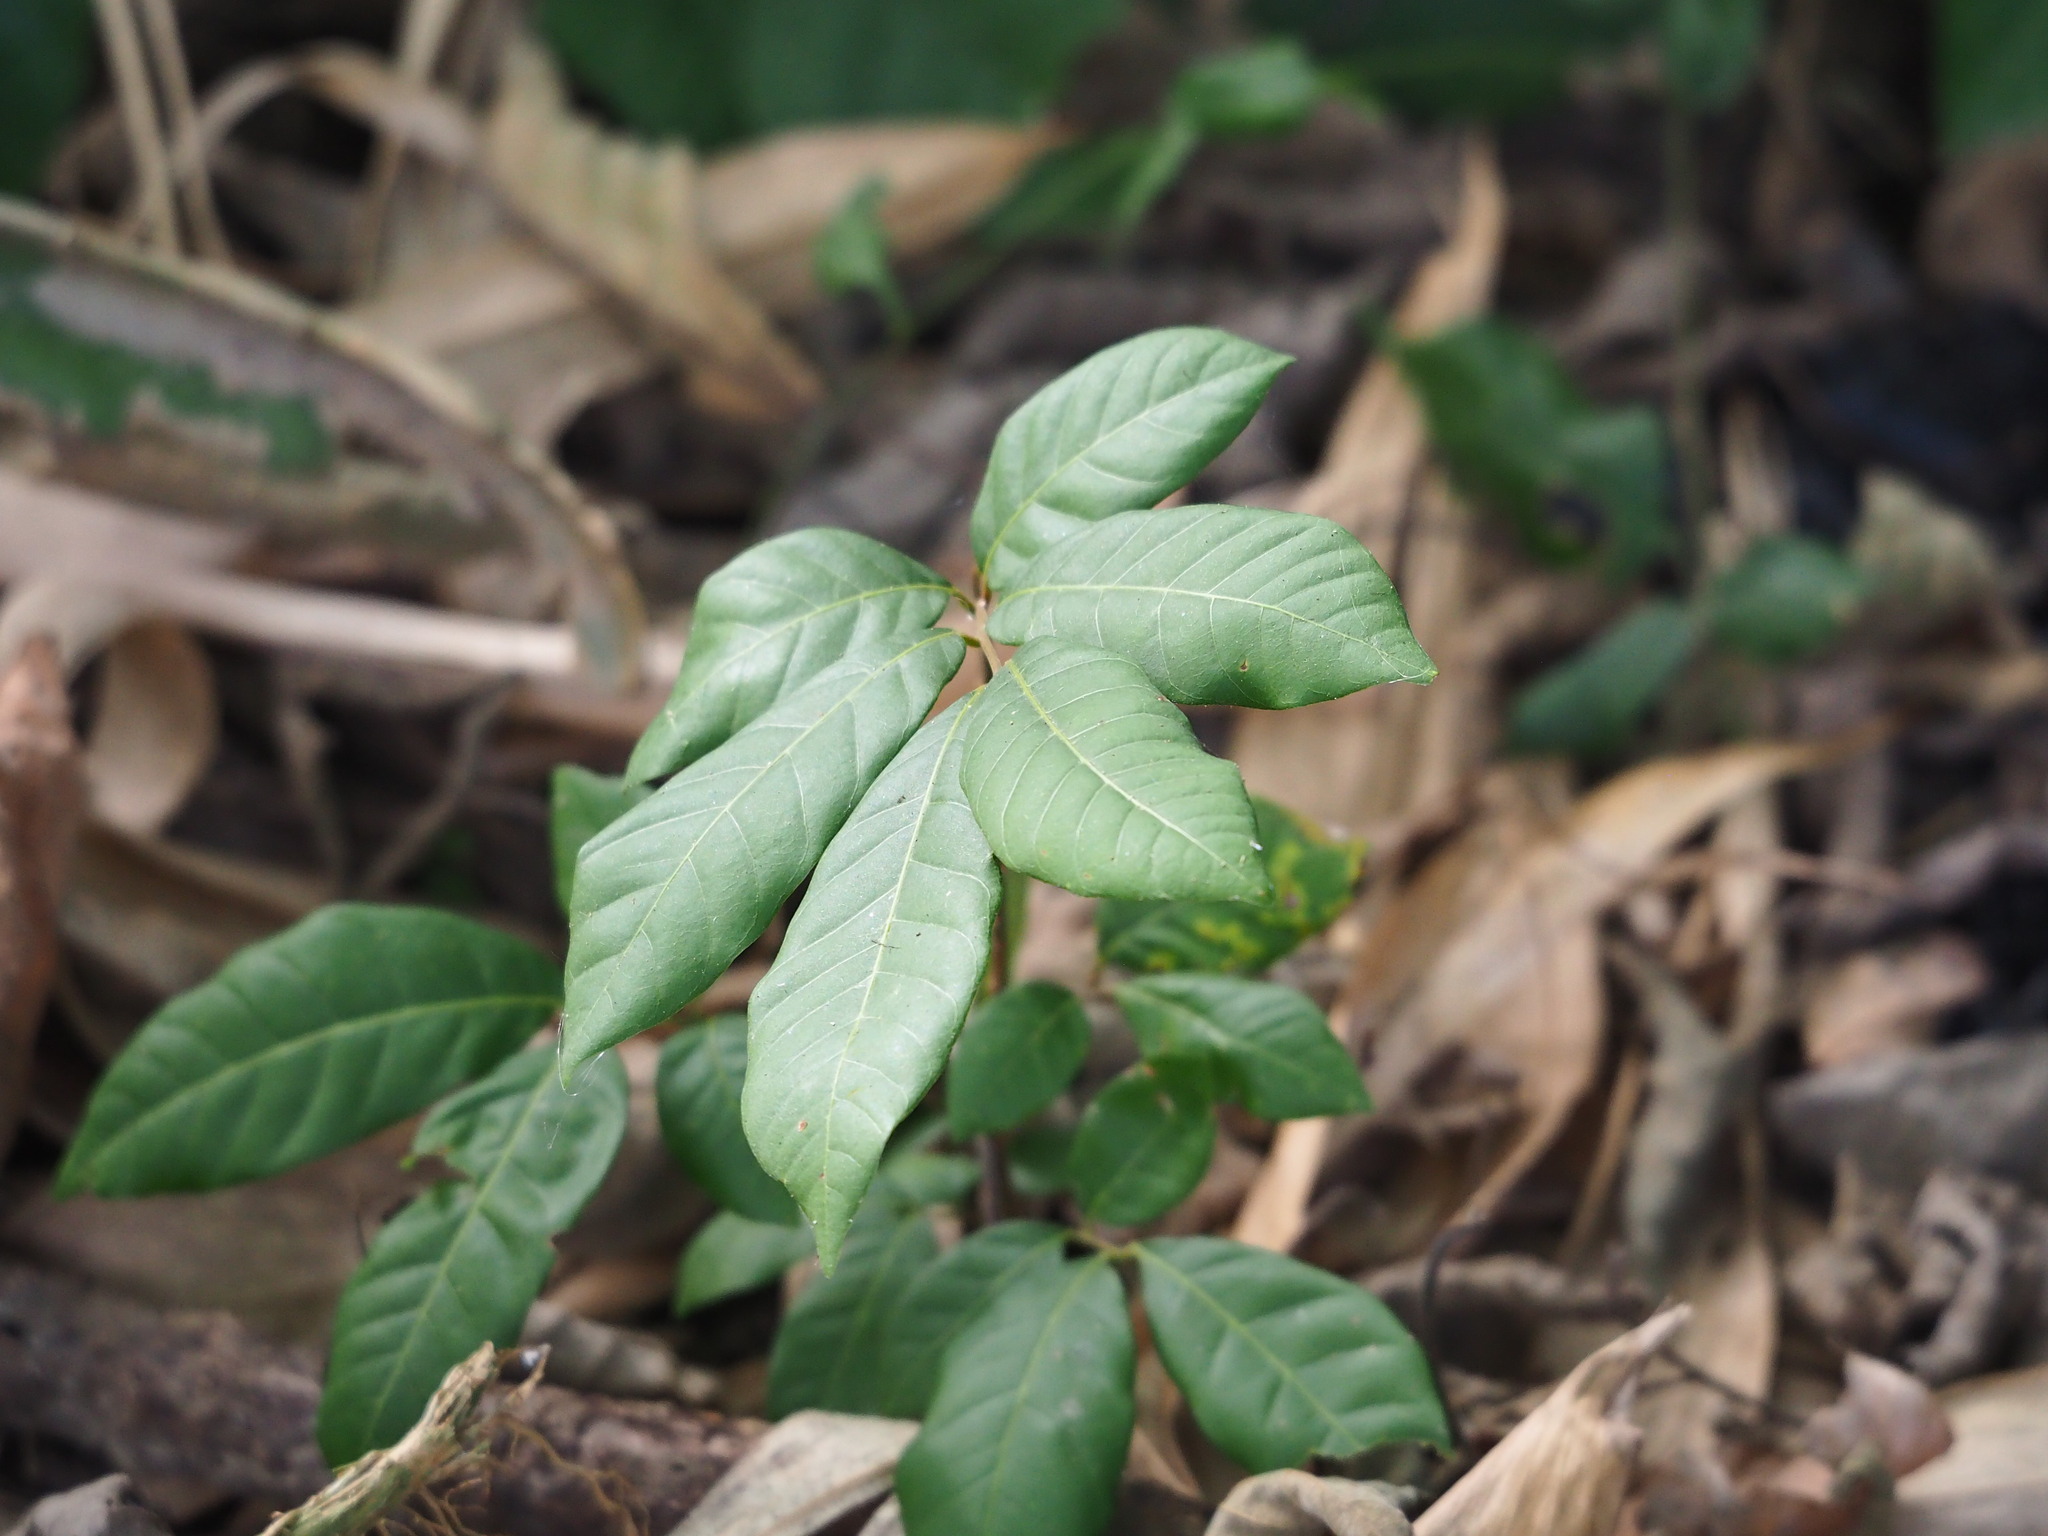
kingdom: Plantae
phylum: Tracheophyta
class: Magnoliopsida
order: Sapindales
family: Sapindaceae
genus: Dimocarpus
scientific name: Dimocarpus longan
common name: Longan
